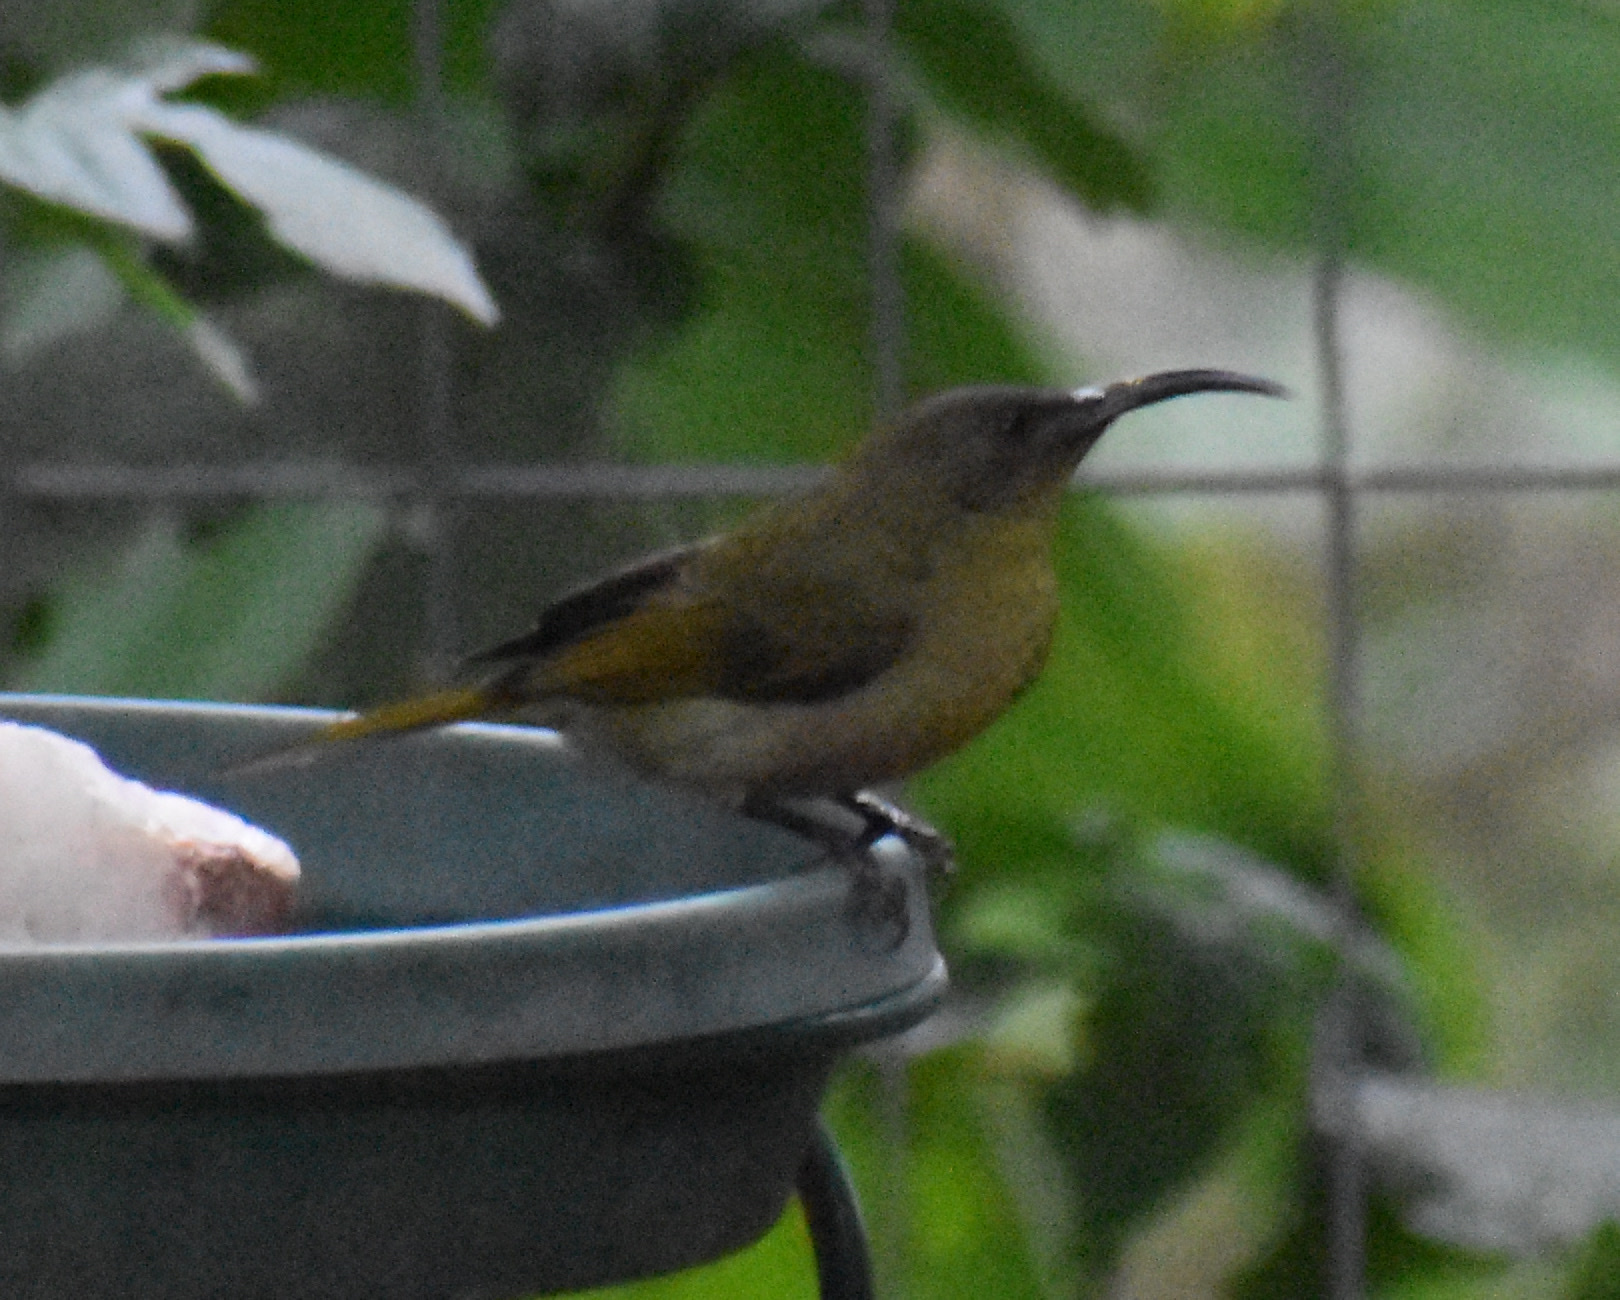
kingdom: Animalia
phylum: Chordata
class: Aves
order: Passeriformes
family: Nectariniidae
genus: Cyanomitra
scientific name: Cyanomitra olivacea
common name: Olive sunbird
